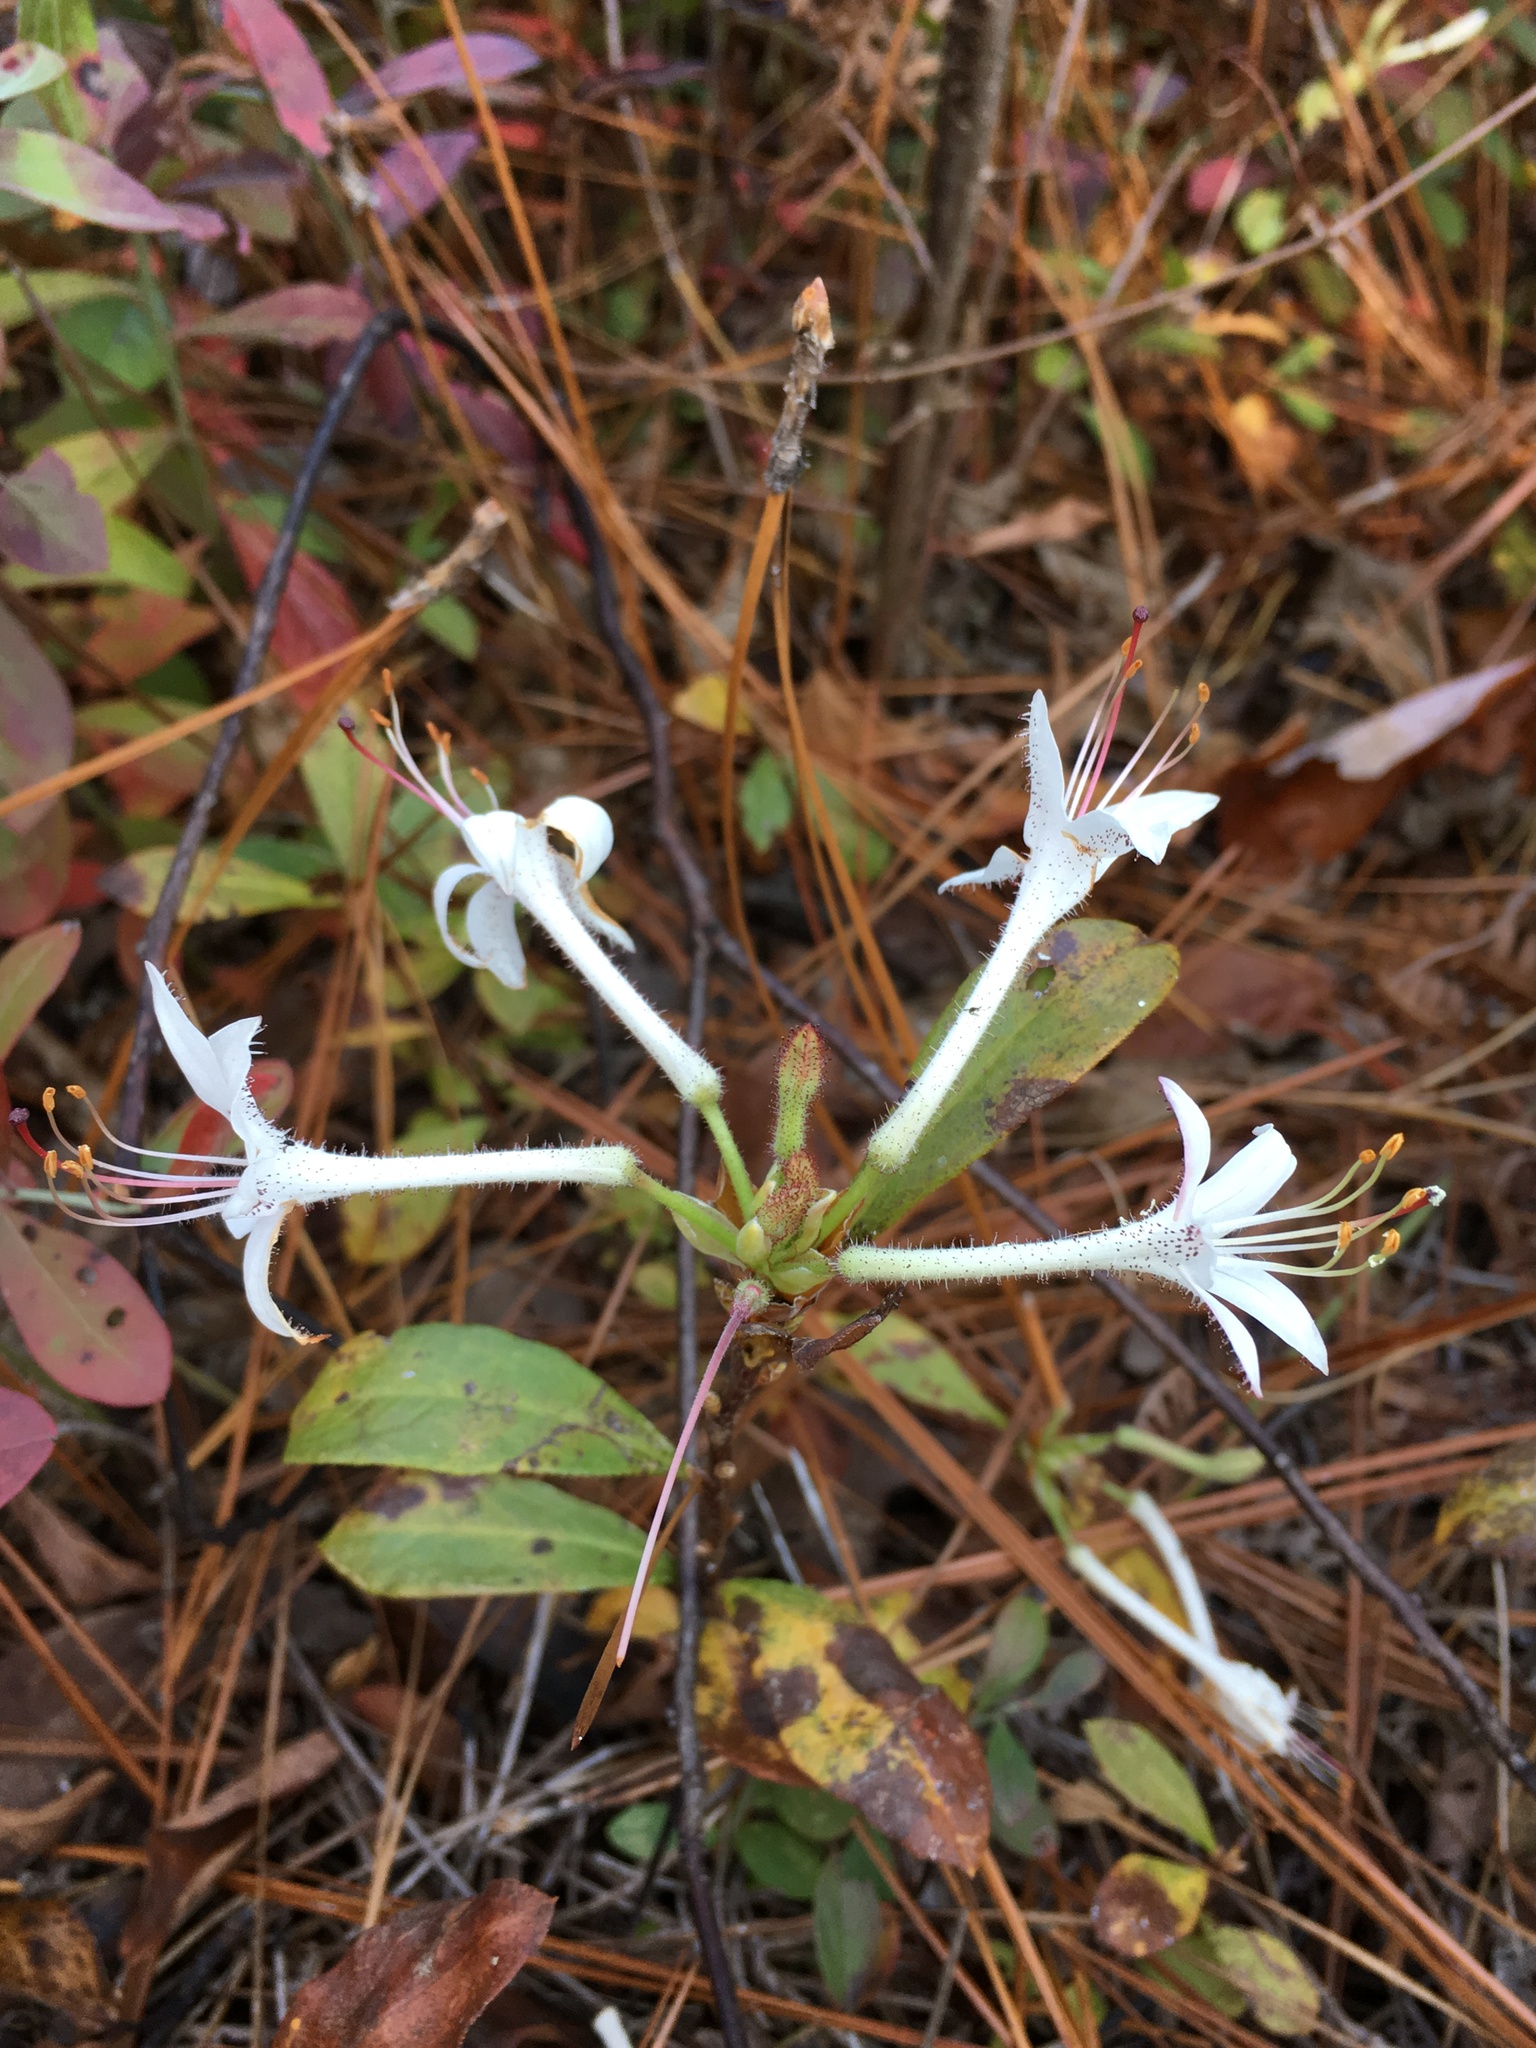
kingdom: Plantae
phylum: Tracheophyta
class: Magnoliopsida
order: Ericales
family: Ericaceae
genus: Rhododendron
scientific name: Rhododendron viscosum
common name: Clammy azalea
